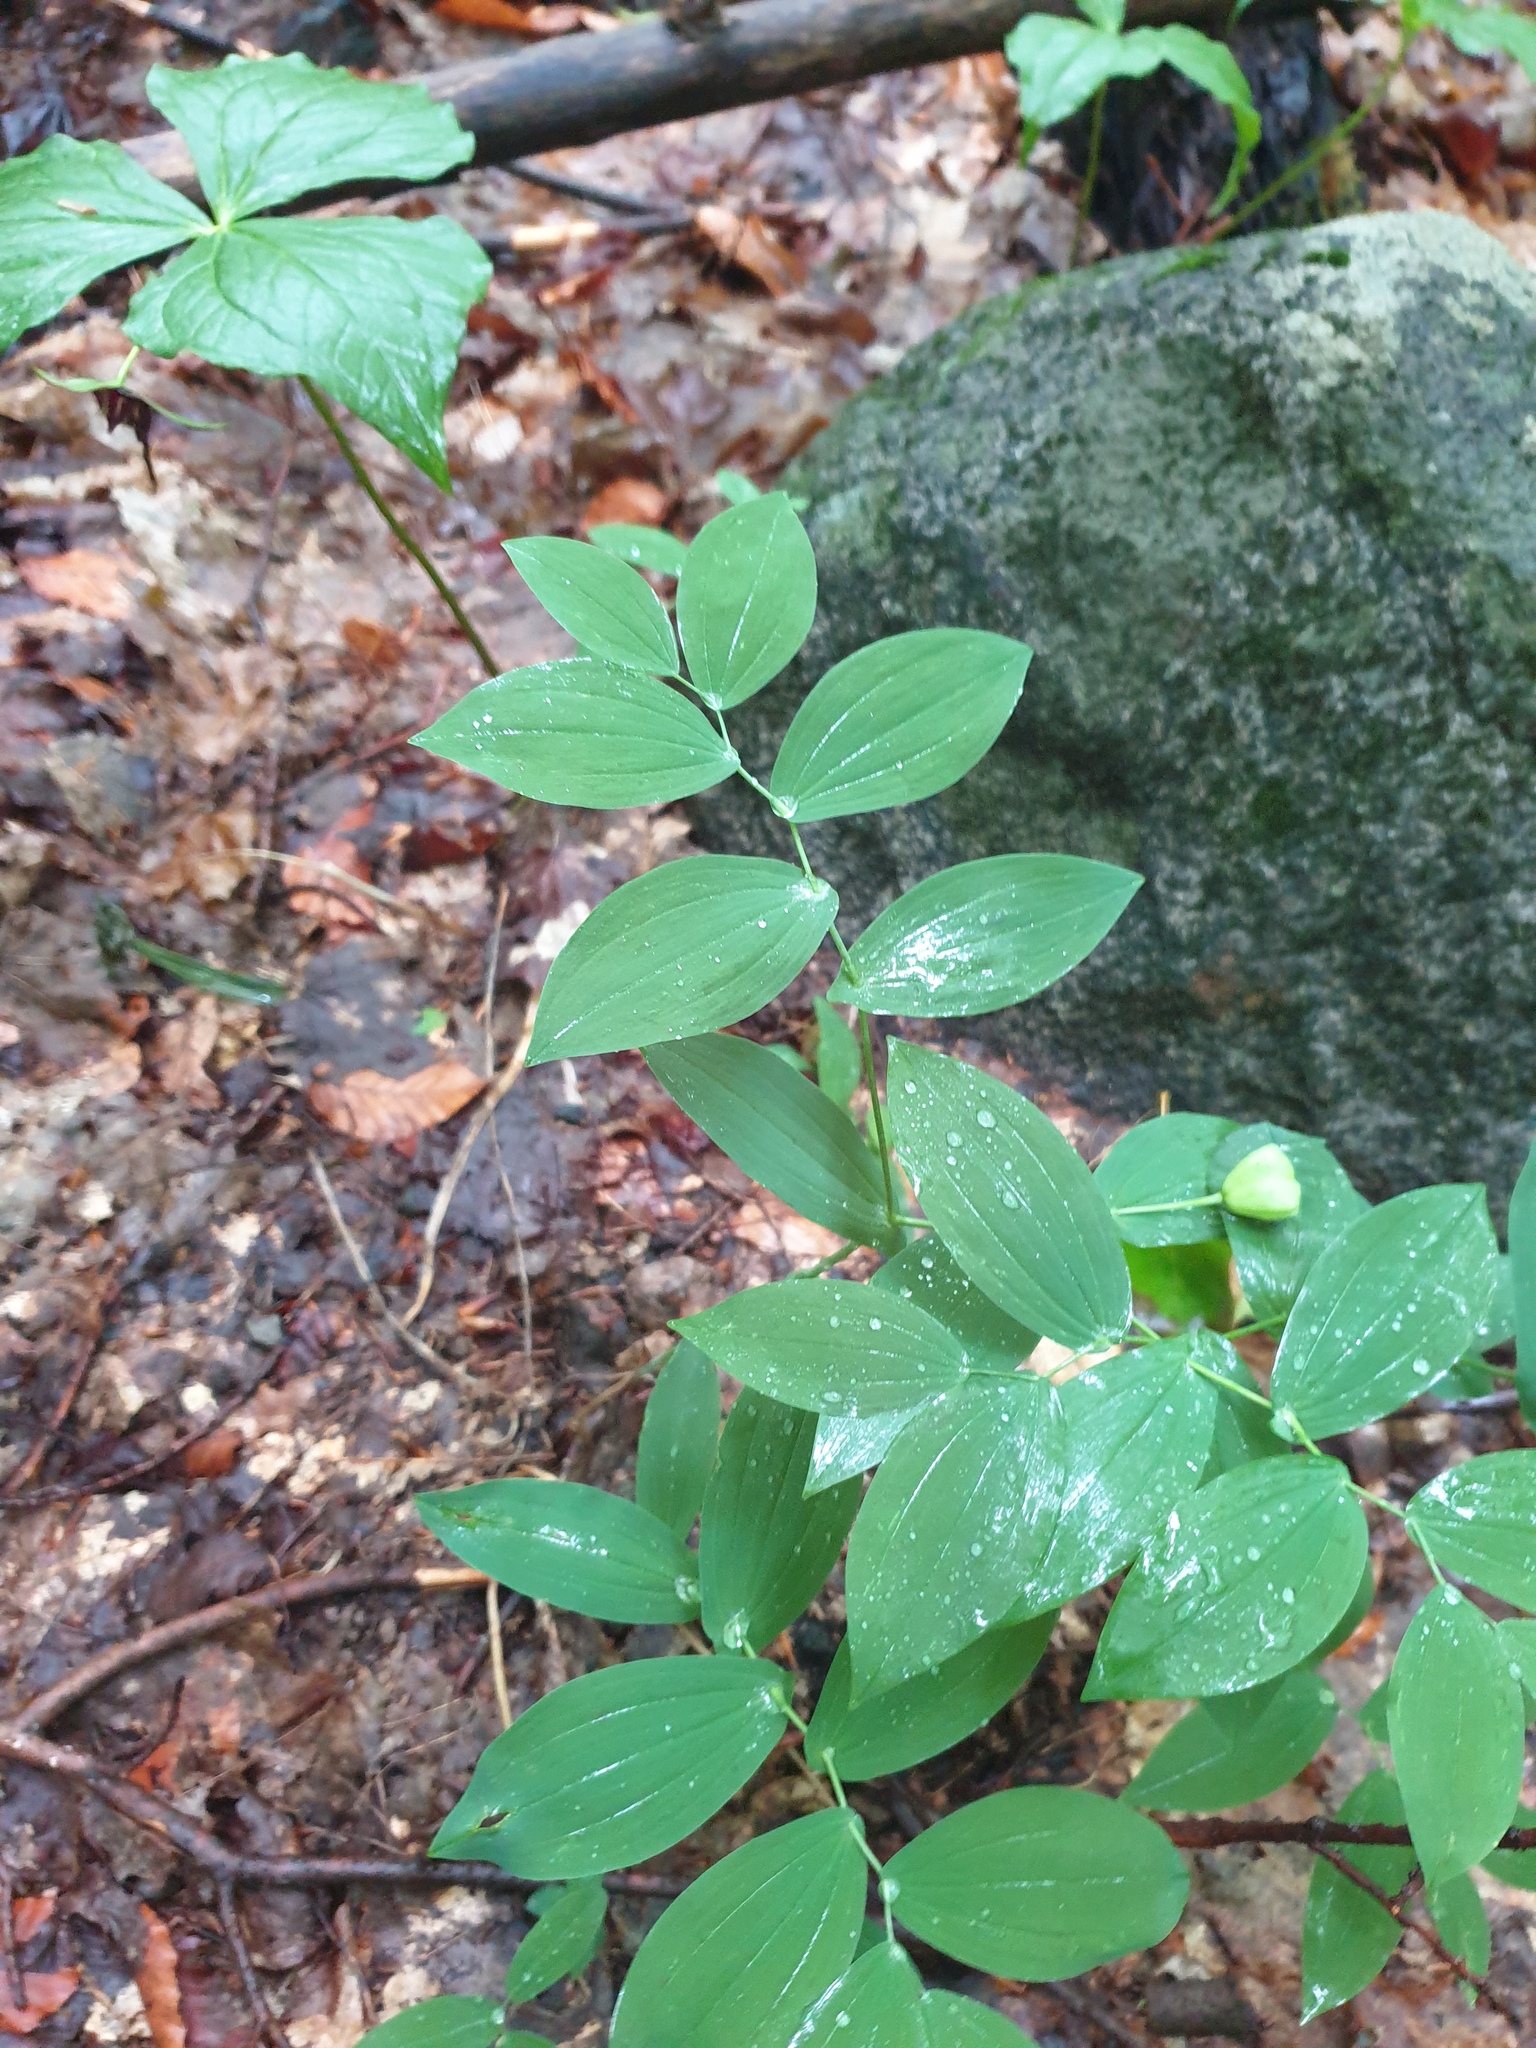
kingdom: Plantae
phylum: Tracheophyta
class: Liliopsida
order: Liliales
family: Melanthiaceae
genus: Trillium
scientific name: Trillium erectum
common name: Purple trillium
